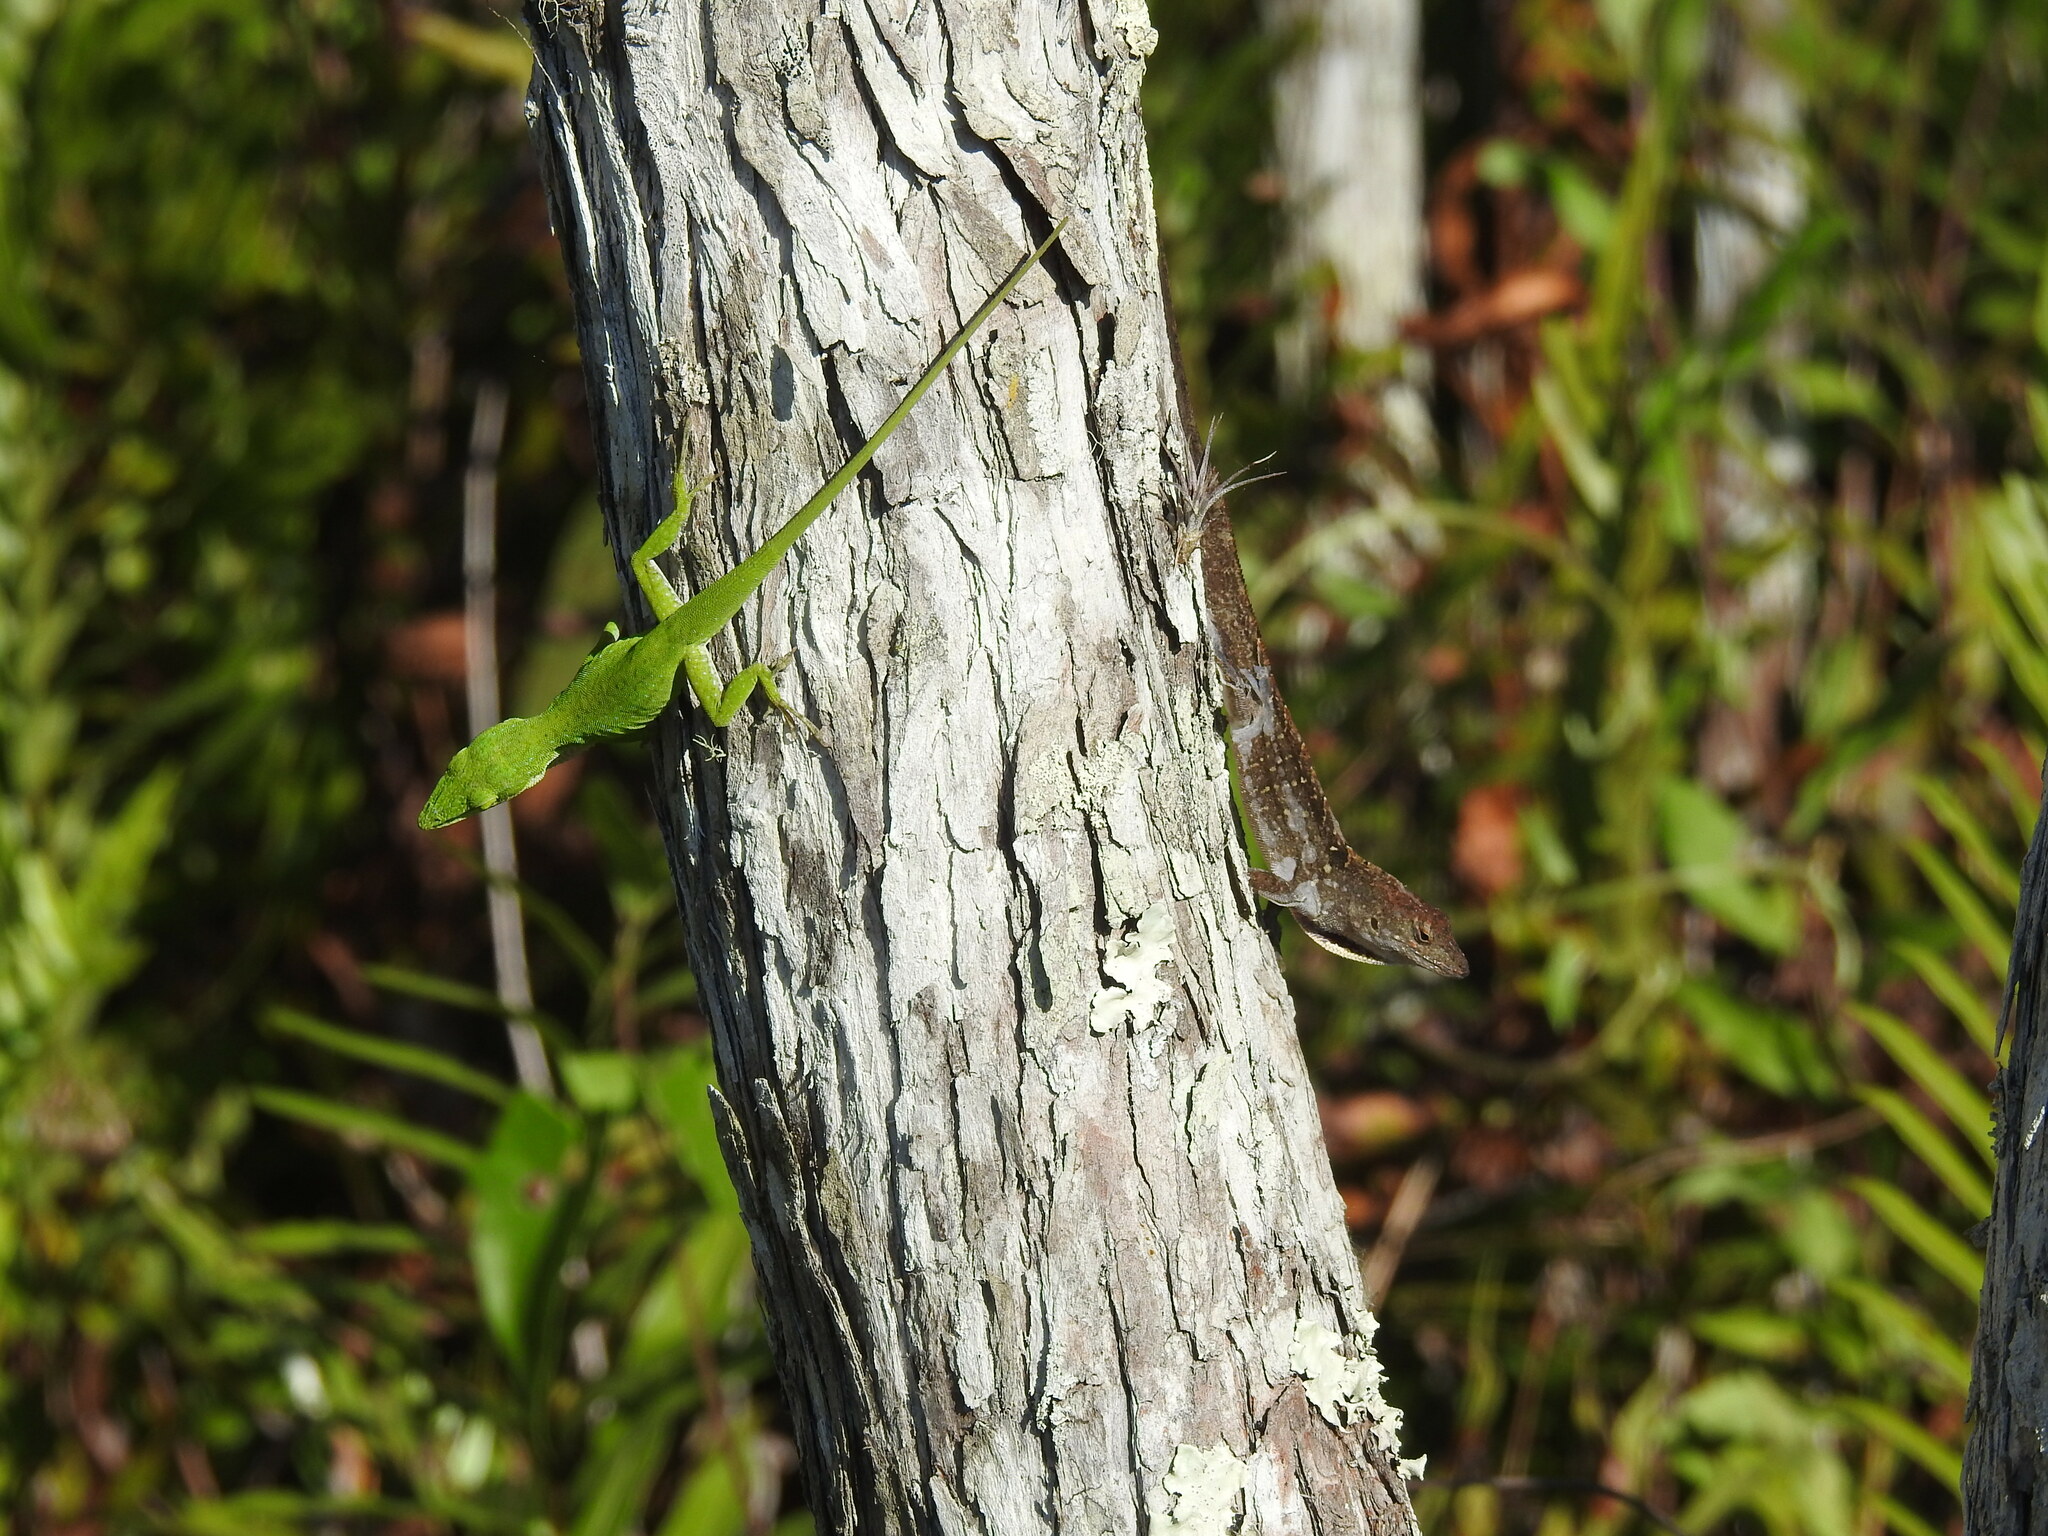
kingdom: Animalia
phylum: Chordata
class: Squamata
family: Dactyloidae
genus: Anolis
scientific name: Anolis carolinensis
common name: Green anole
